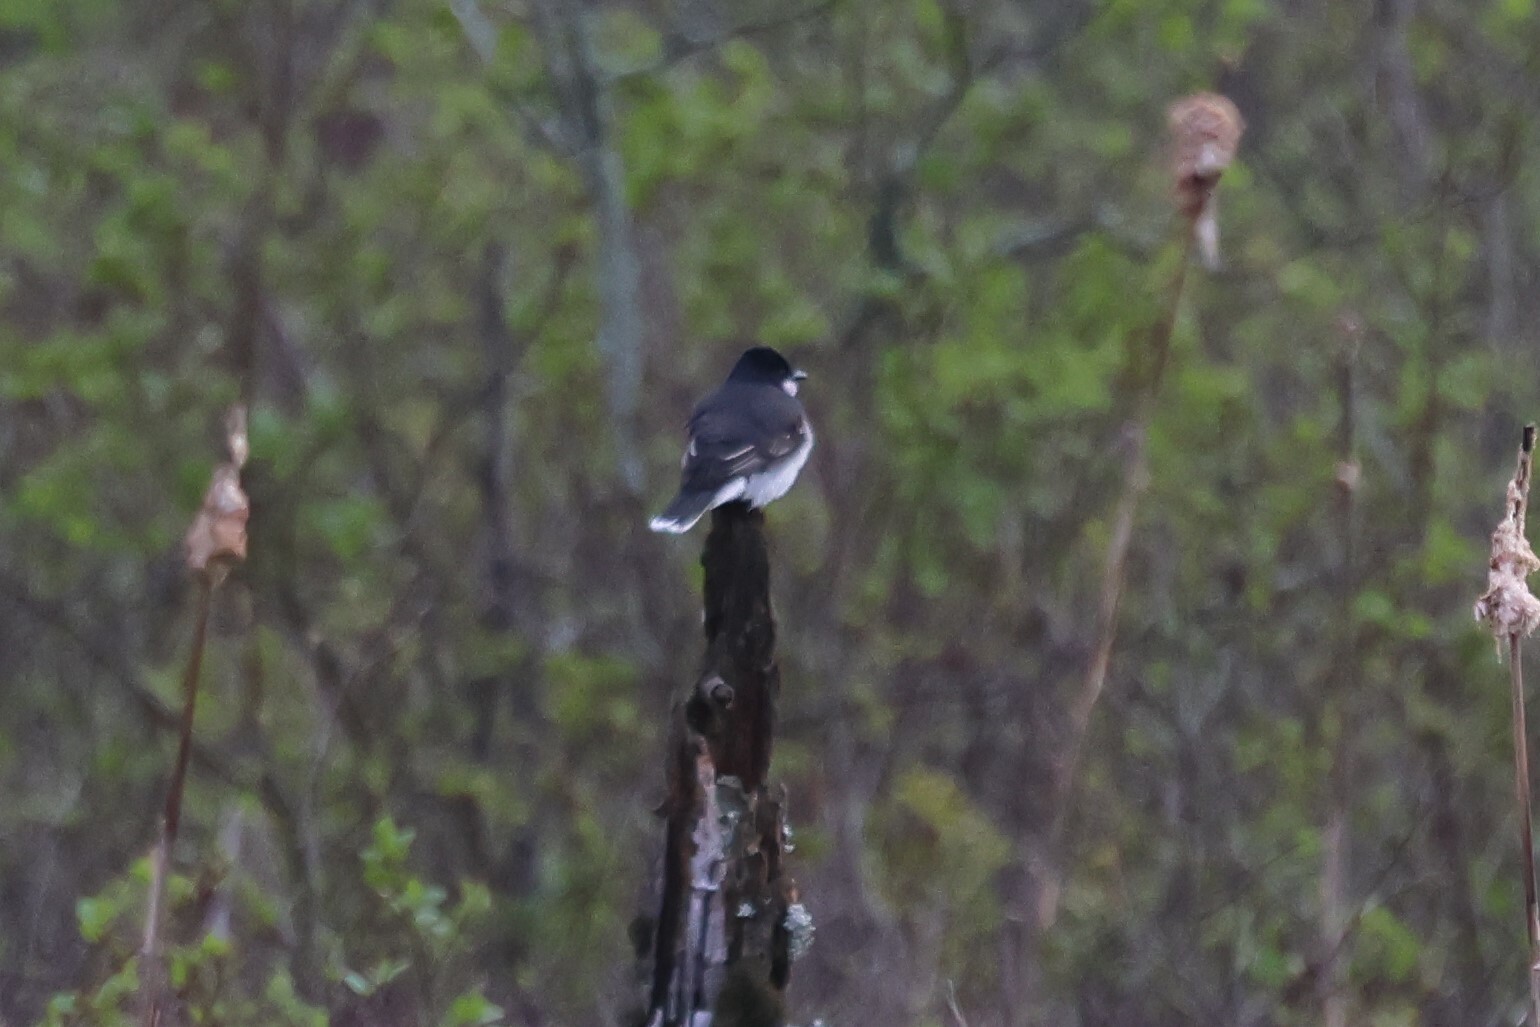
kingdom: Animalia
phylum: Chordata
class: Aves
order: Passeriformes
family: Tyrannidae
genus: Tyrannus
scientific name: Tyrannus tyrannus
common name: Eastern kingbird
